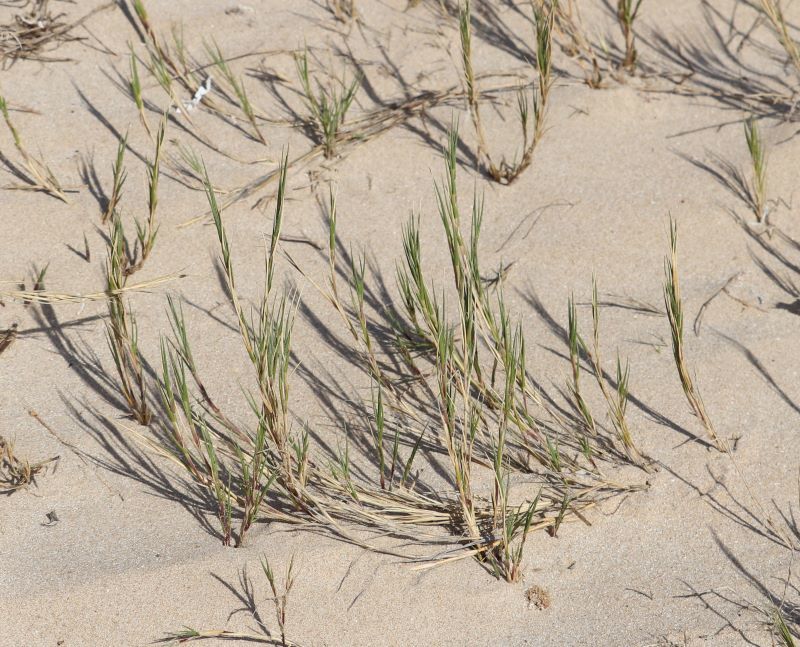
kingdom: Plantae
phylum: Tracheophyta
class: Liliopsida
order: Poales
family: Poaceae
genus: Sporobolus
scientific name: Sporobolus virginicus
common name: Beach dropseed
